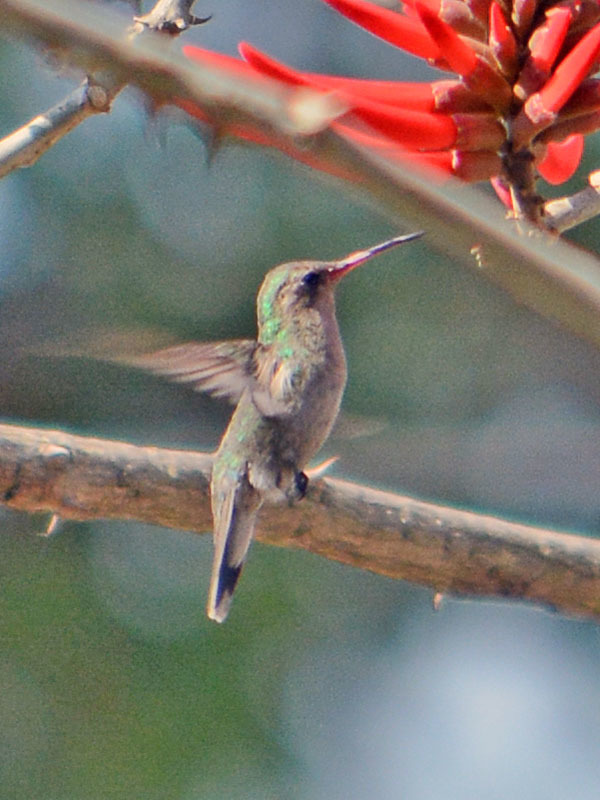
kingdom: Animalia
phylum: Chordata
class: Aves
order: Apodiformes
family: Trochilidae
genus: Cynanthus
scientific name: Cynanthus latirostris
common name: Broad-billed hummingbird
